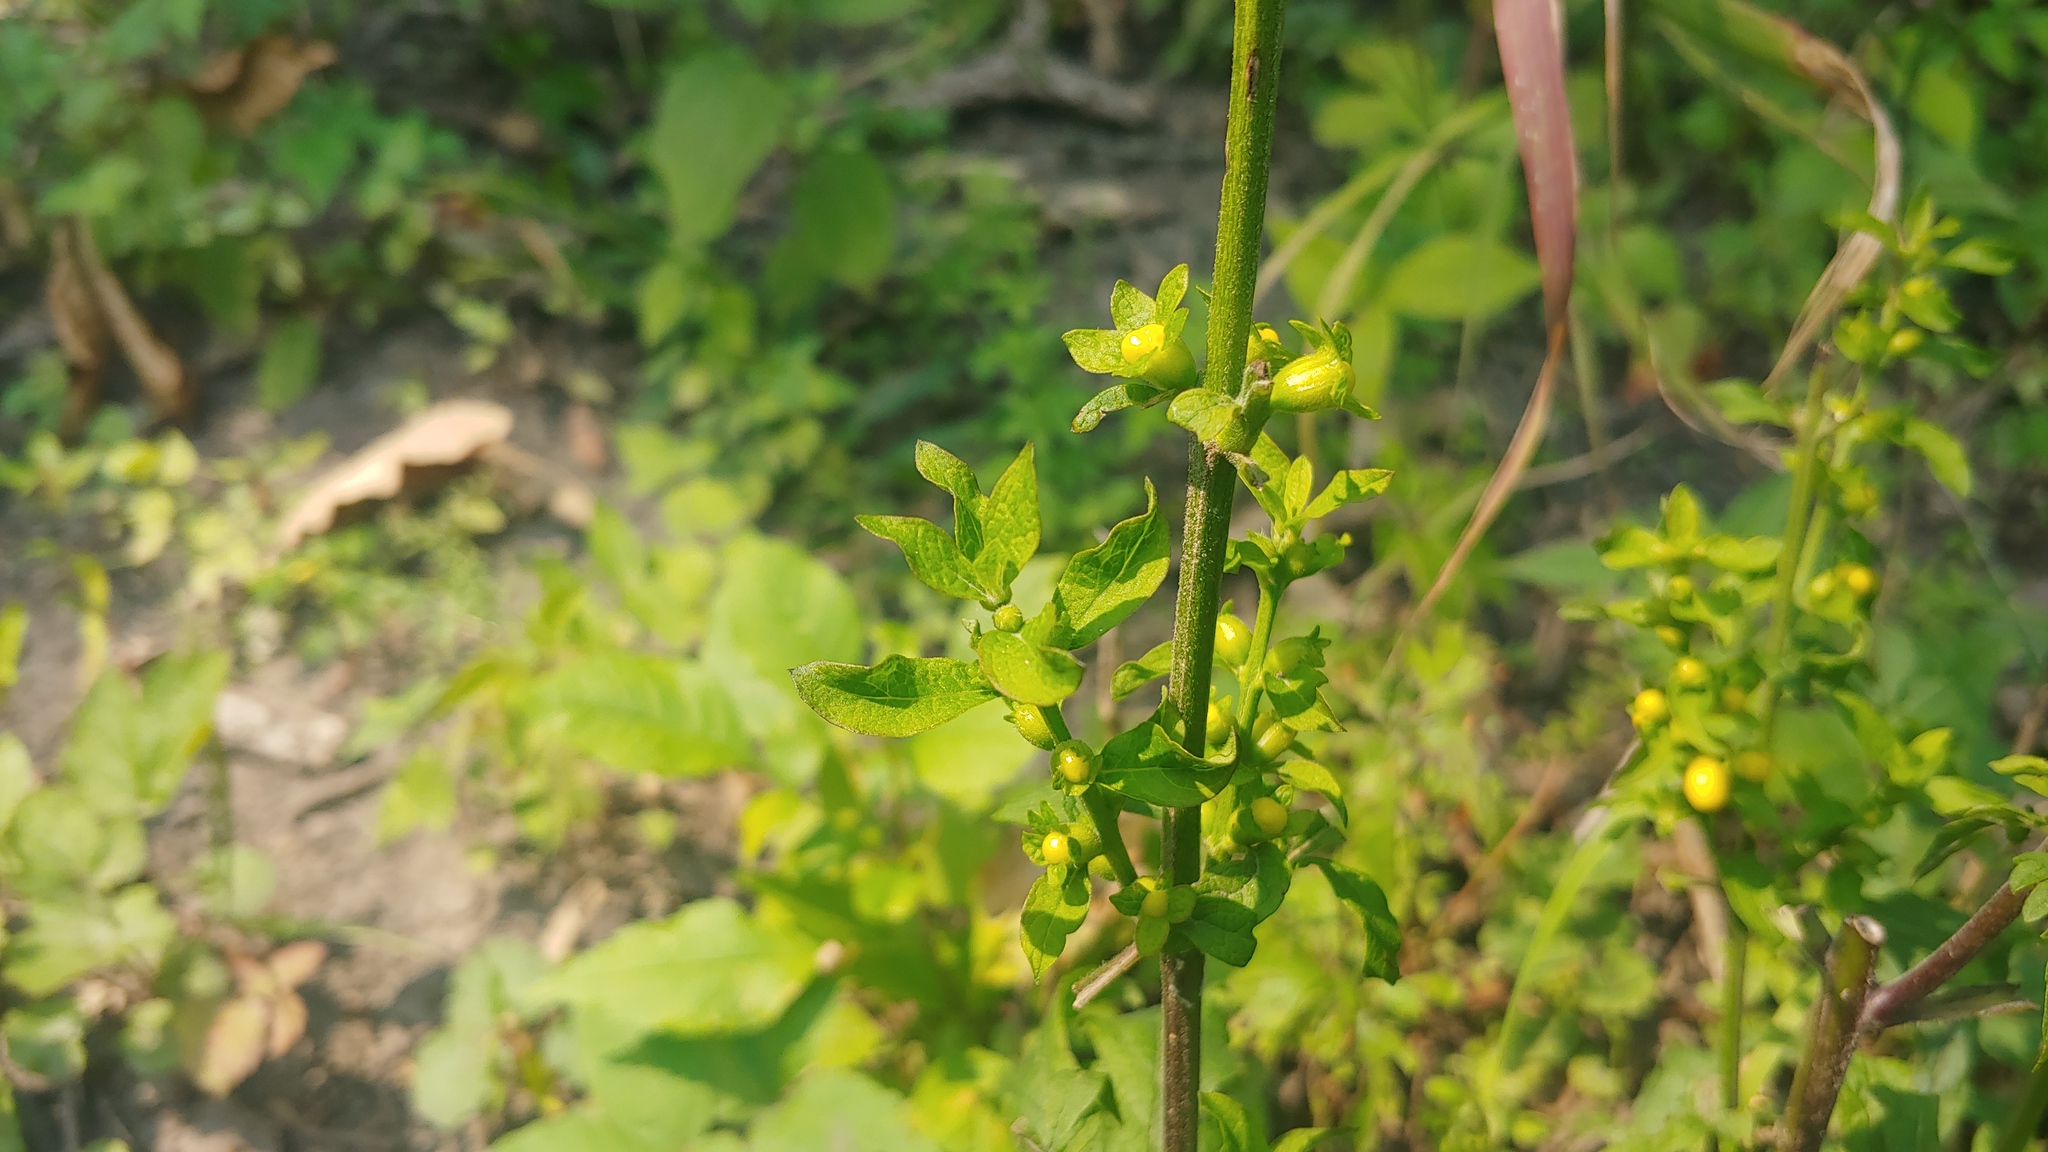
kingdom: Plantae
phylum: Tracheophyta
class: Magnoliopsida
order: Lamiales
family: Orobanchaceae
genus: Dasistoma
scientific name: Dasistoma macrophyllum
